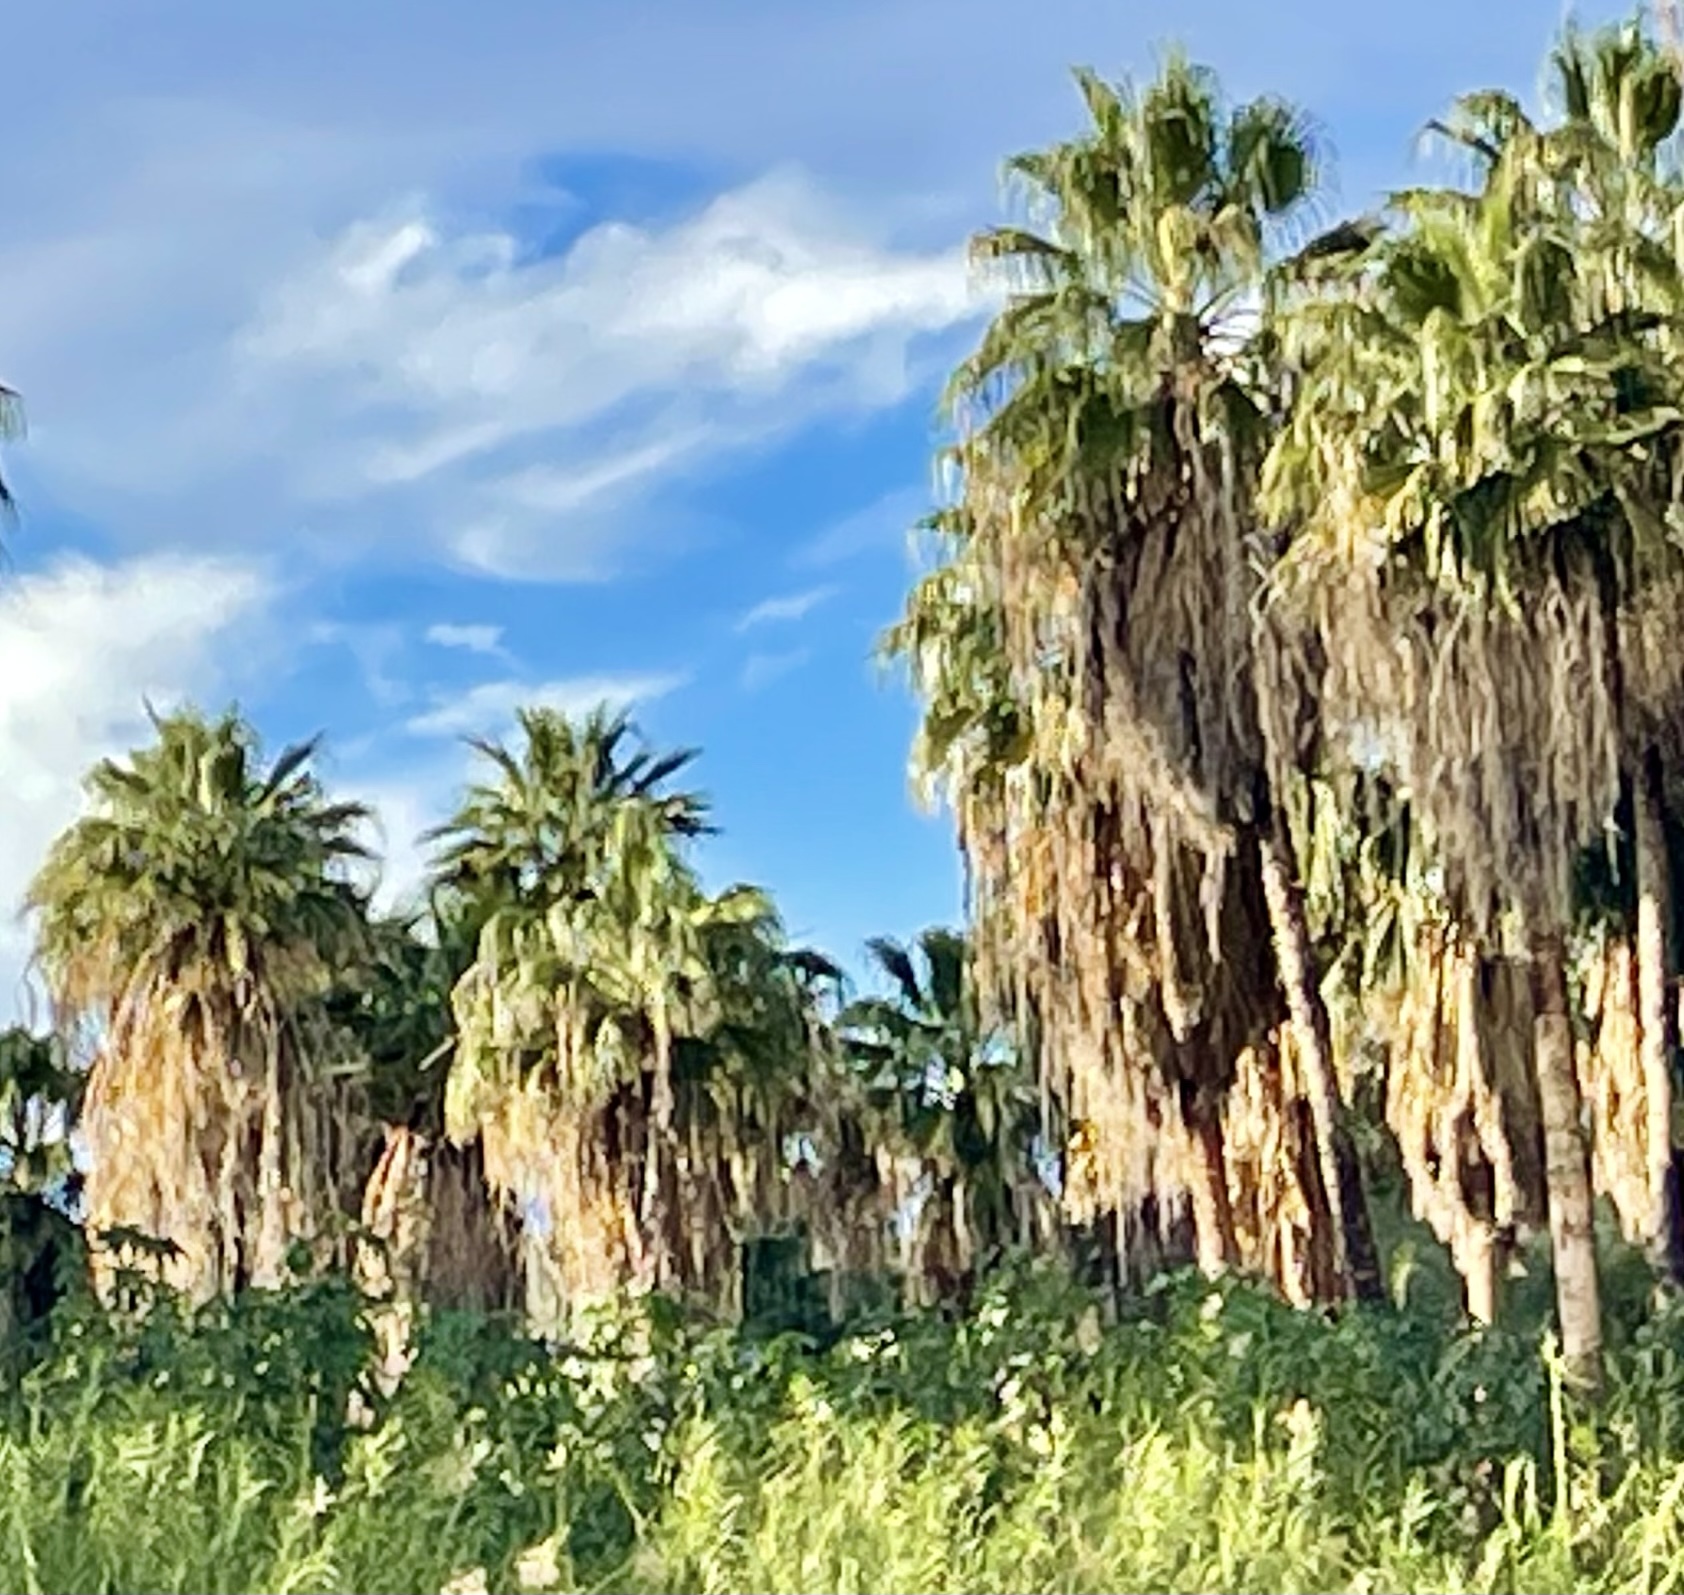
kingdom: Plantae
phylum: Tracheophyta
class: Liliopsida
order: Arecales
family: Arecaceae
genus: Washingtonia
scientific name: Washingtonia robusta
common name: Mexican fan palm
